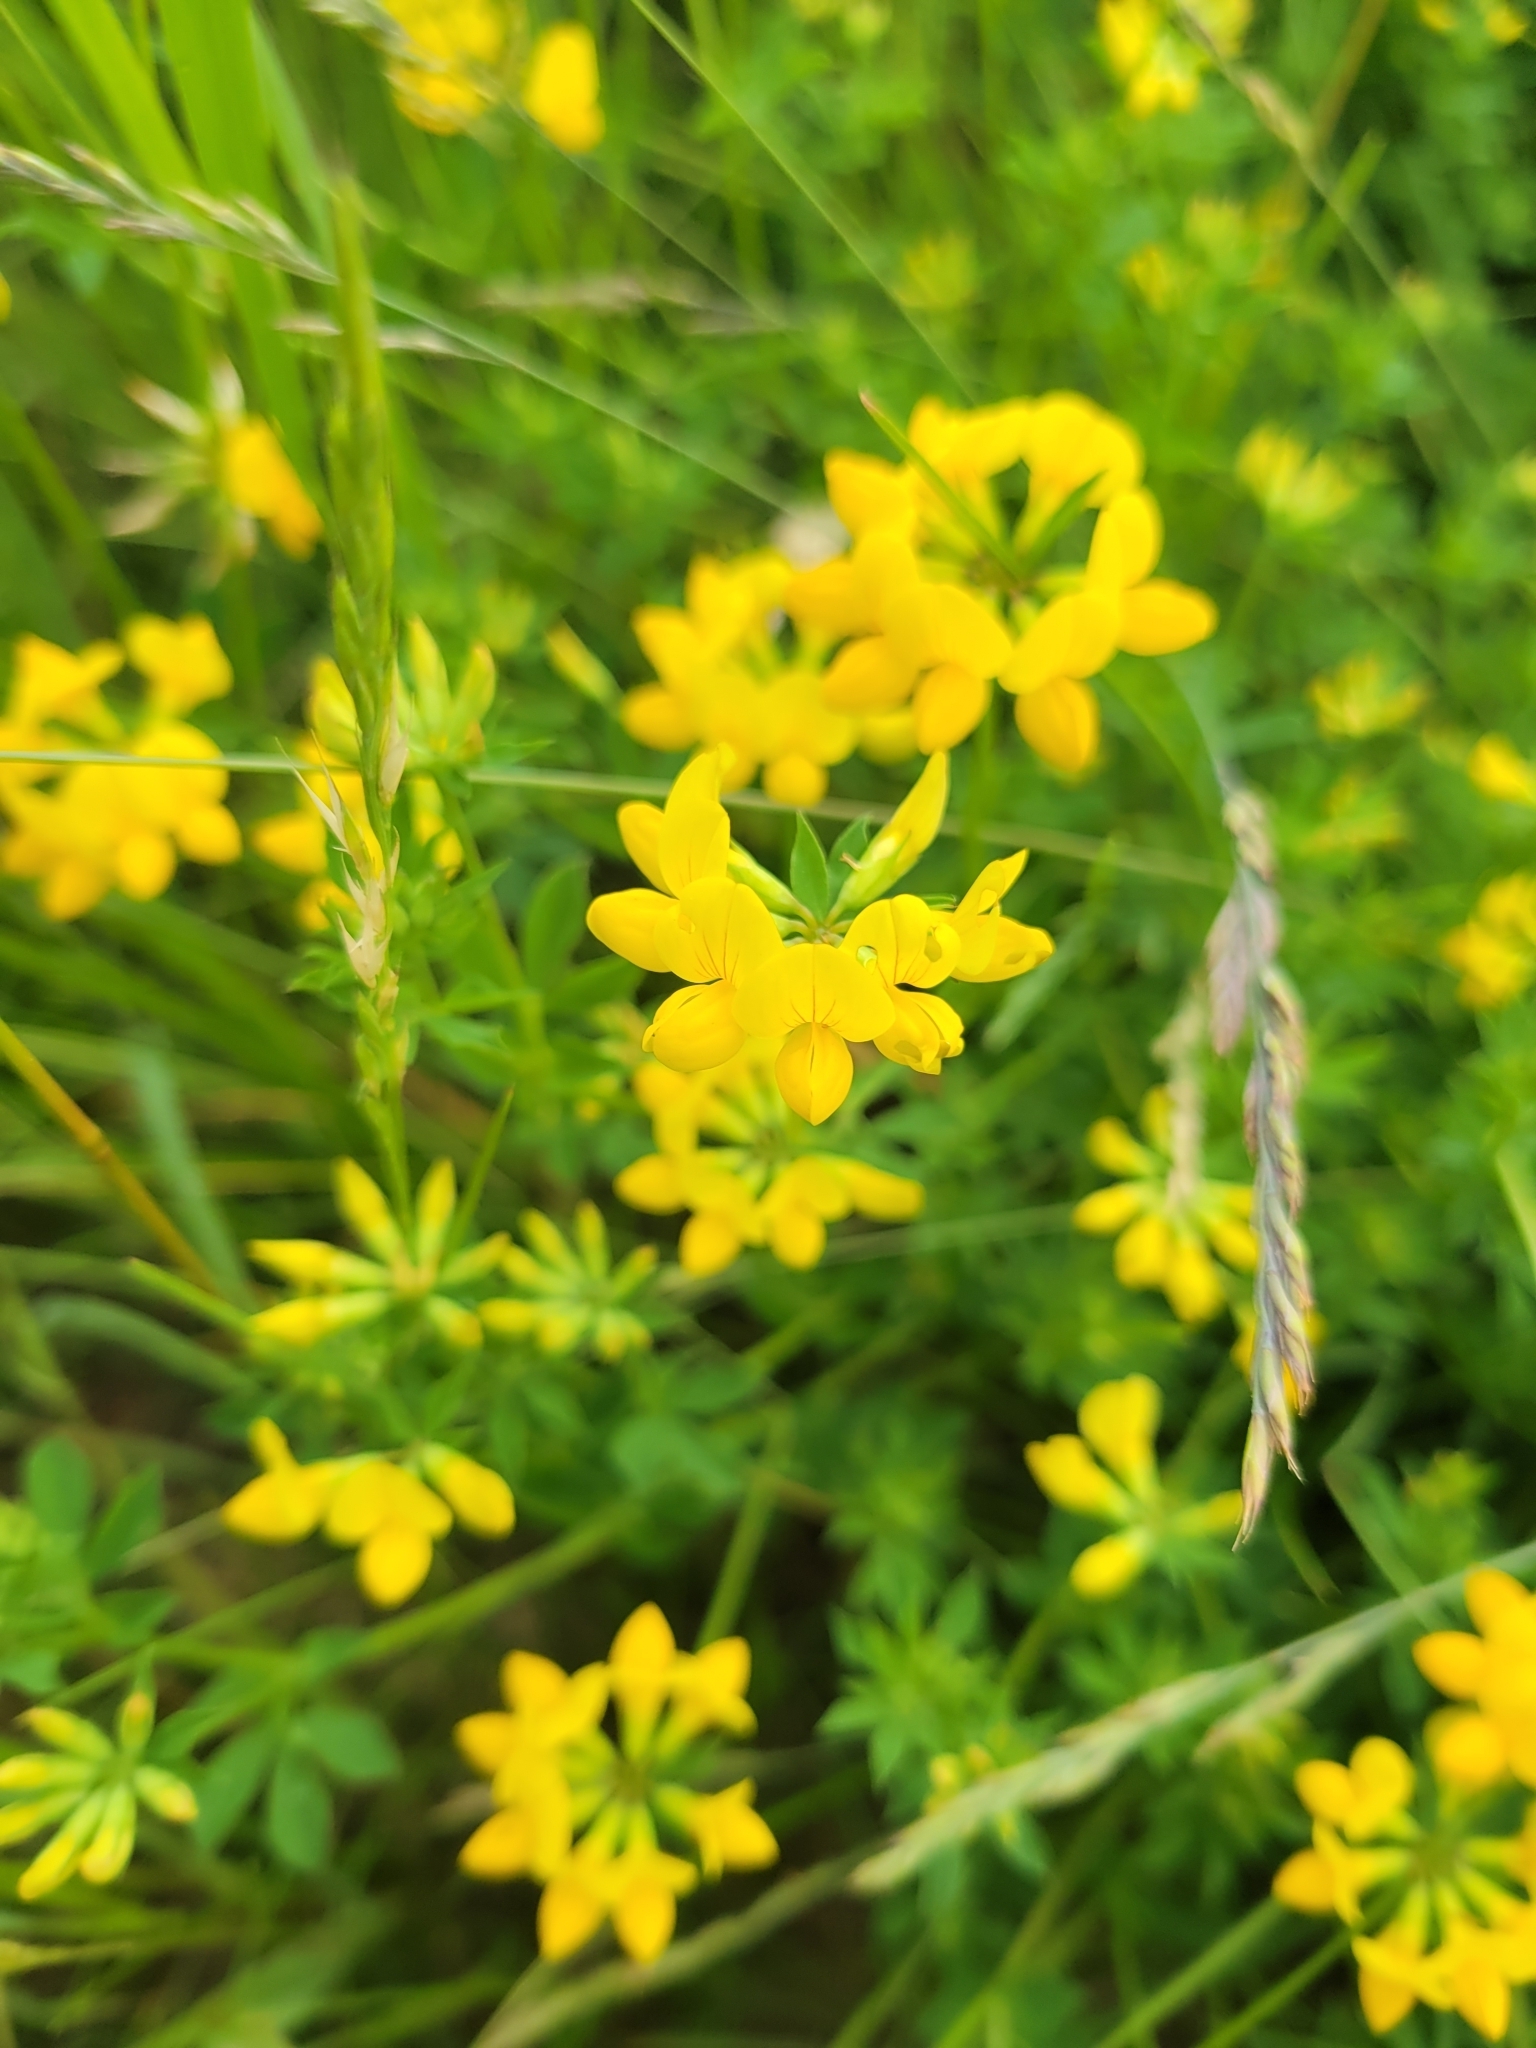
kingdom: Plantae
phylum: Tracheophyta
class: Magnoliopsida
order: Fabales
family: Fabaceae
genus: Lotus
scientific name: Lotus corniculatus
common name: Common bird's-foot-trefoil
